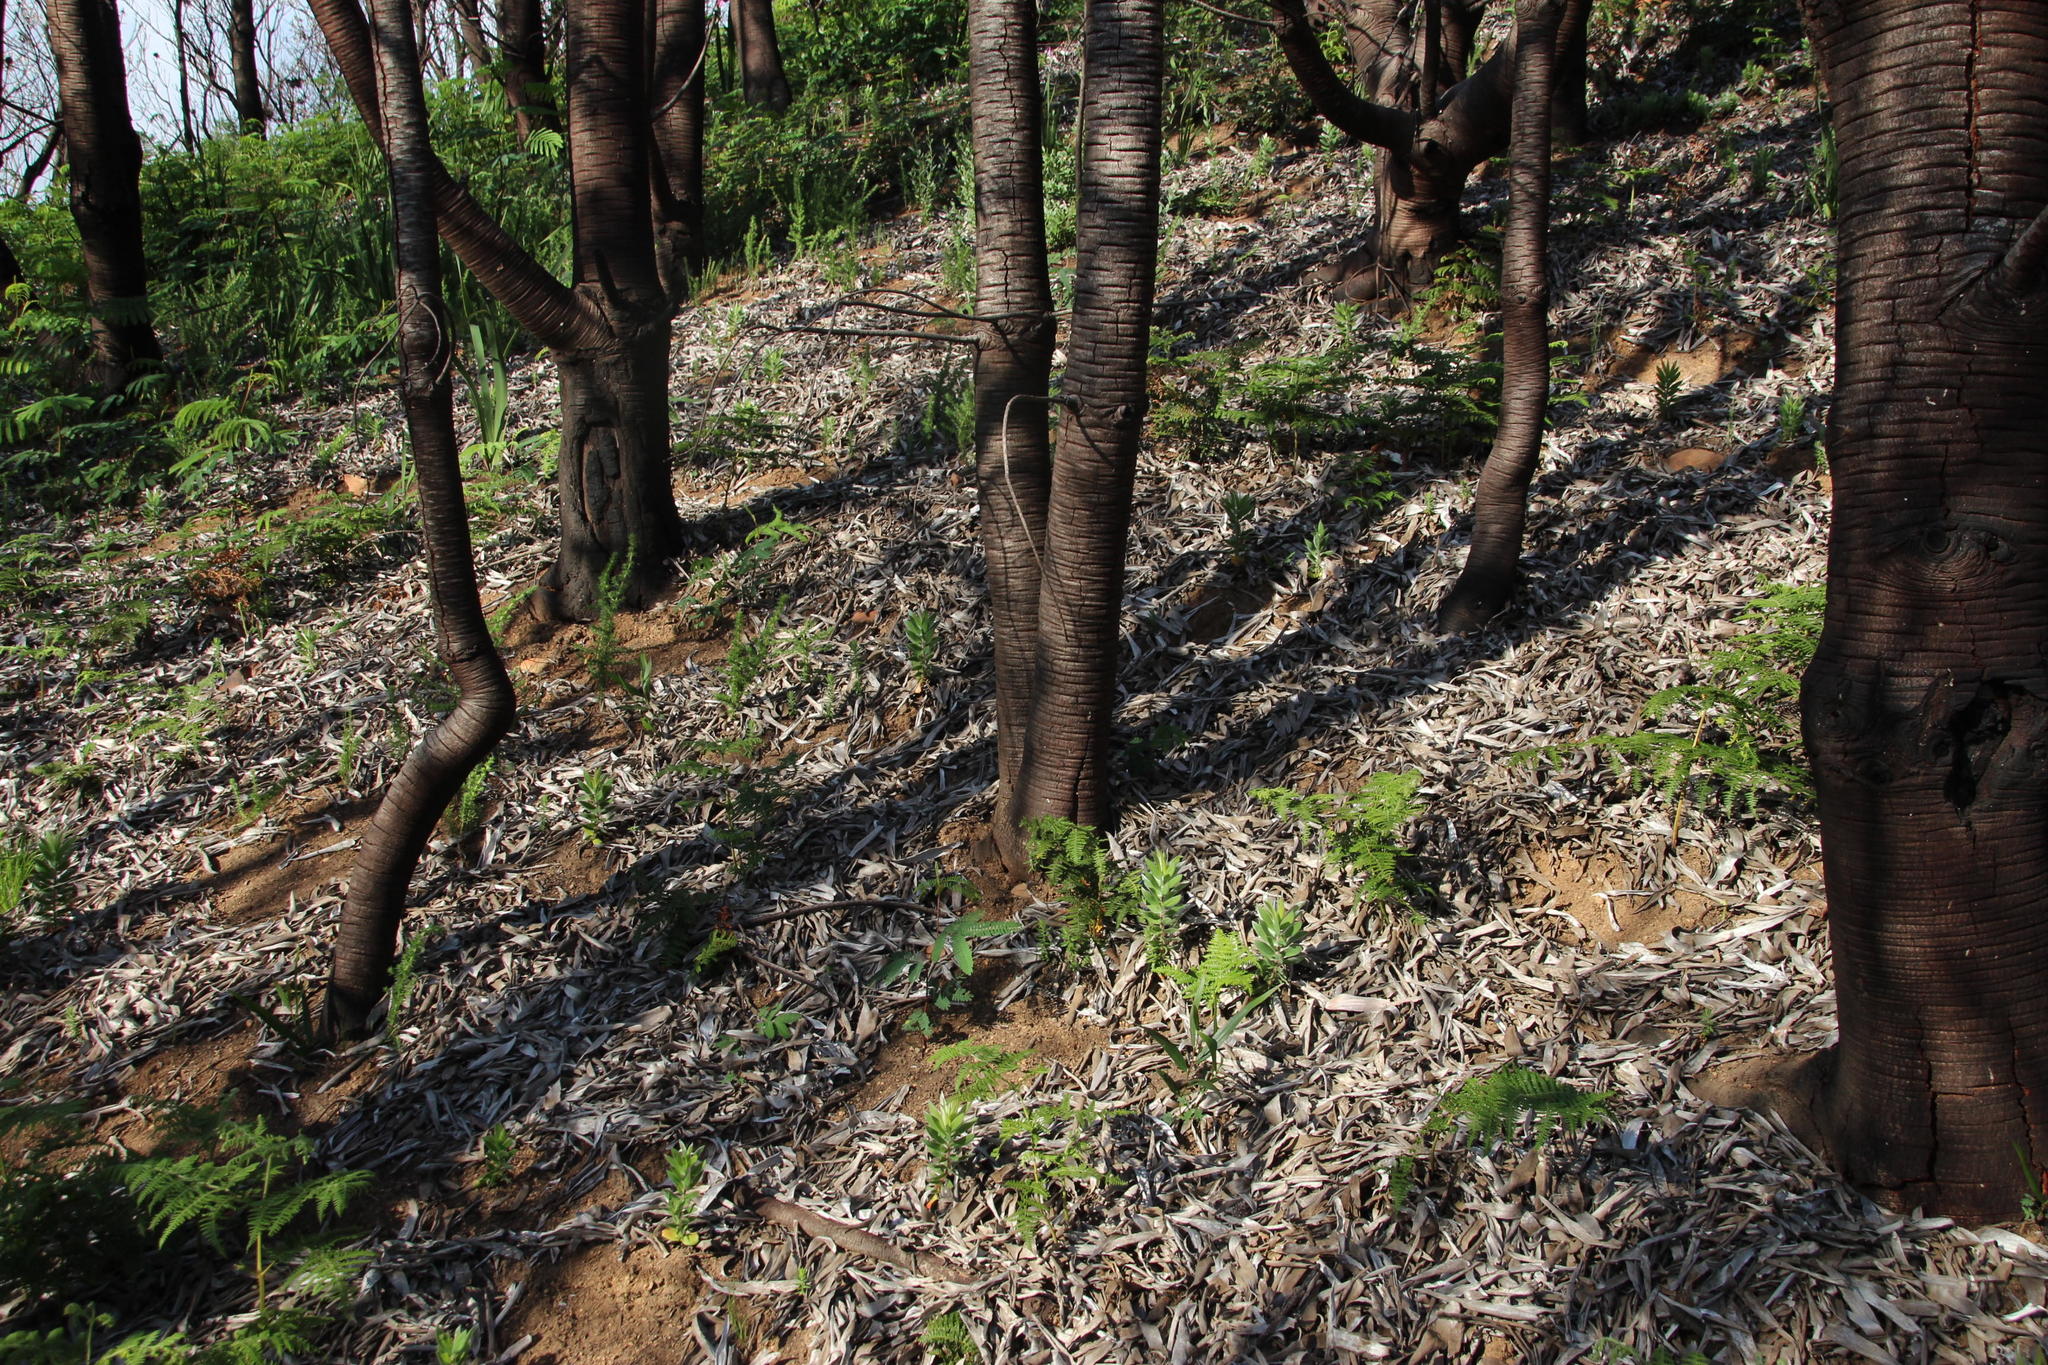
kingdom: Plantae
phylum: Tracheophyta
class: Magnoliopsida
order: Proteales
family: Proteaceae
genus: Leucadendron
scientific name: Leucadendron argenteum
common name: Cape silver tree
